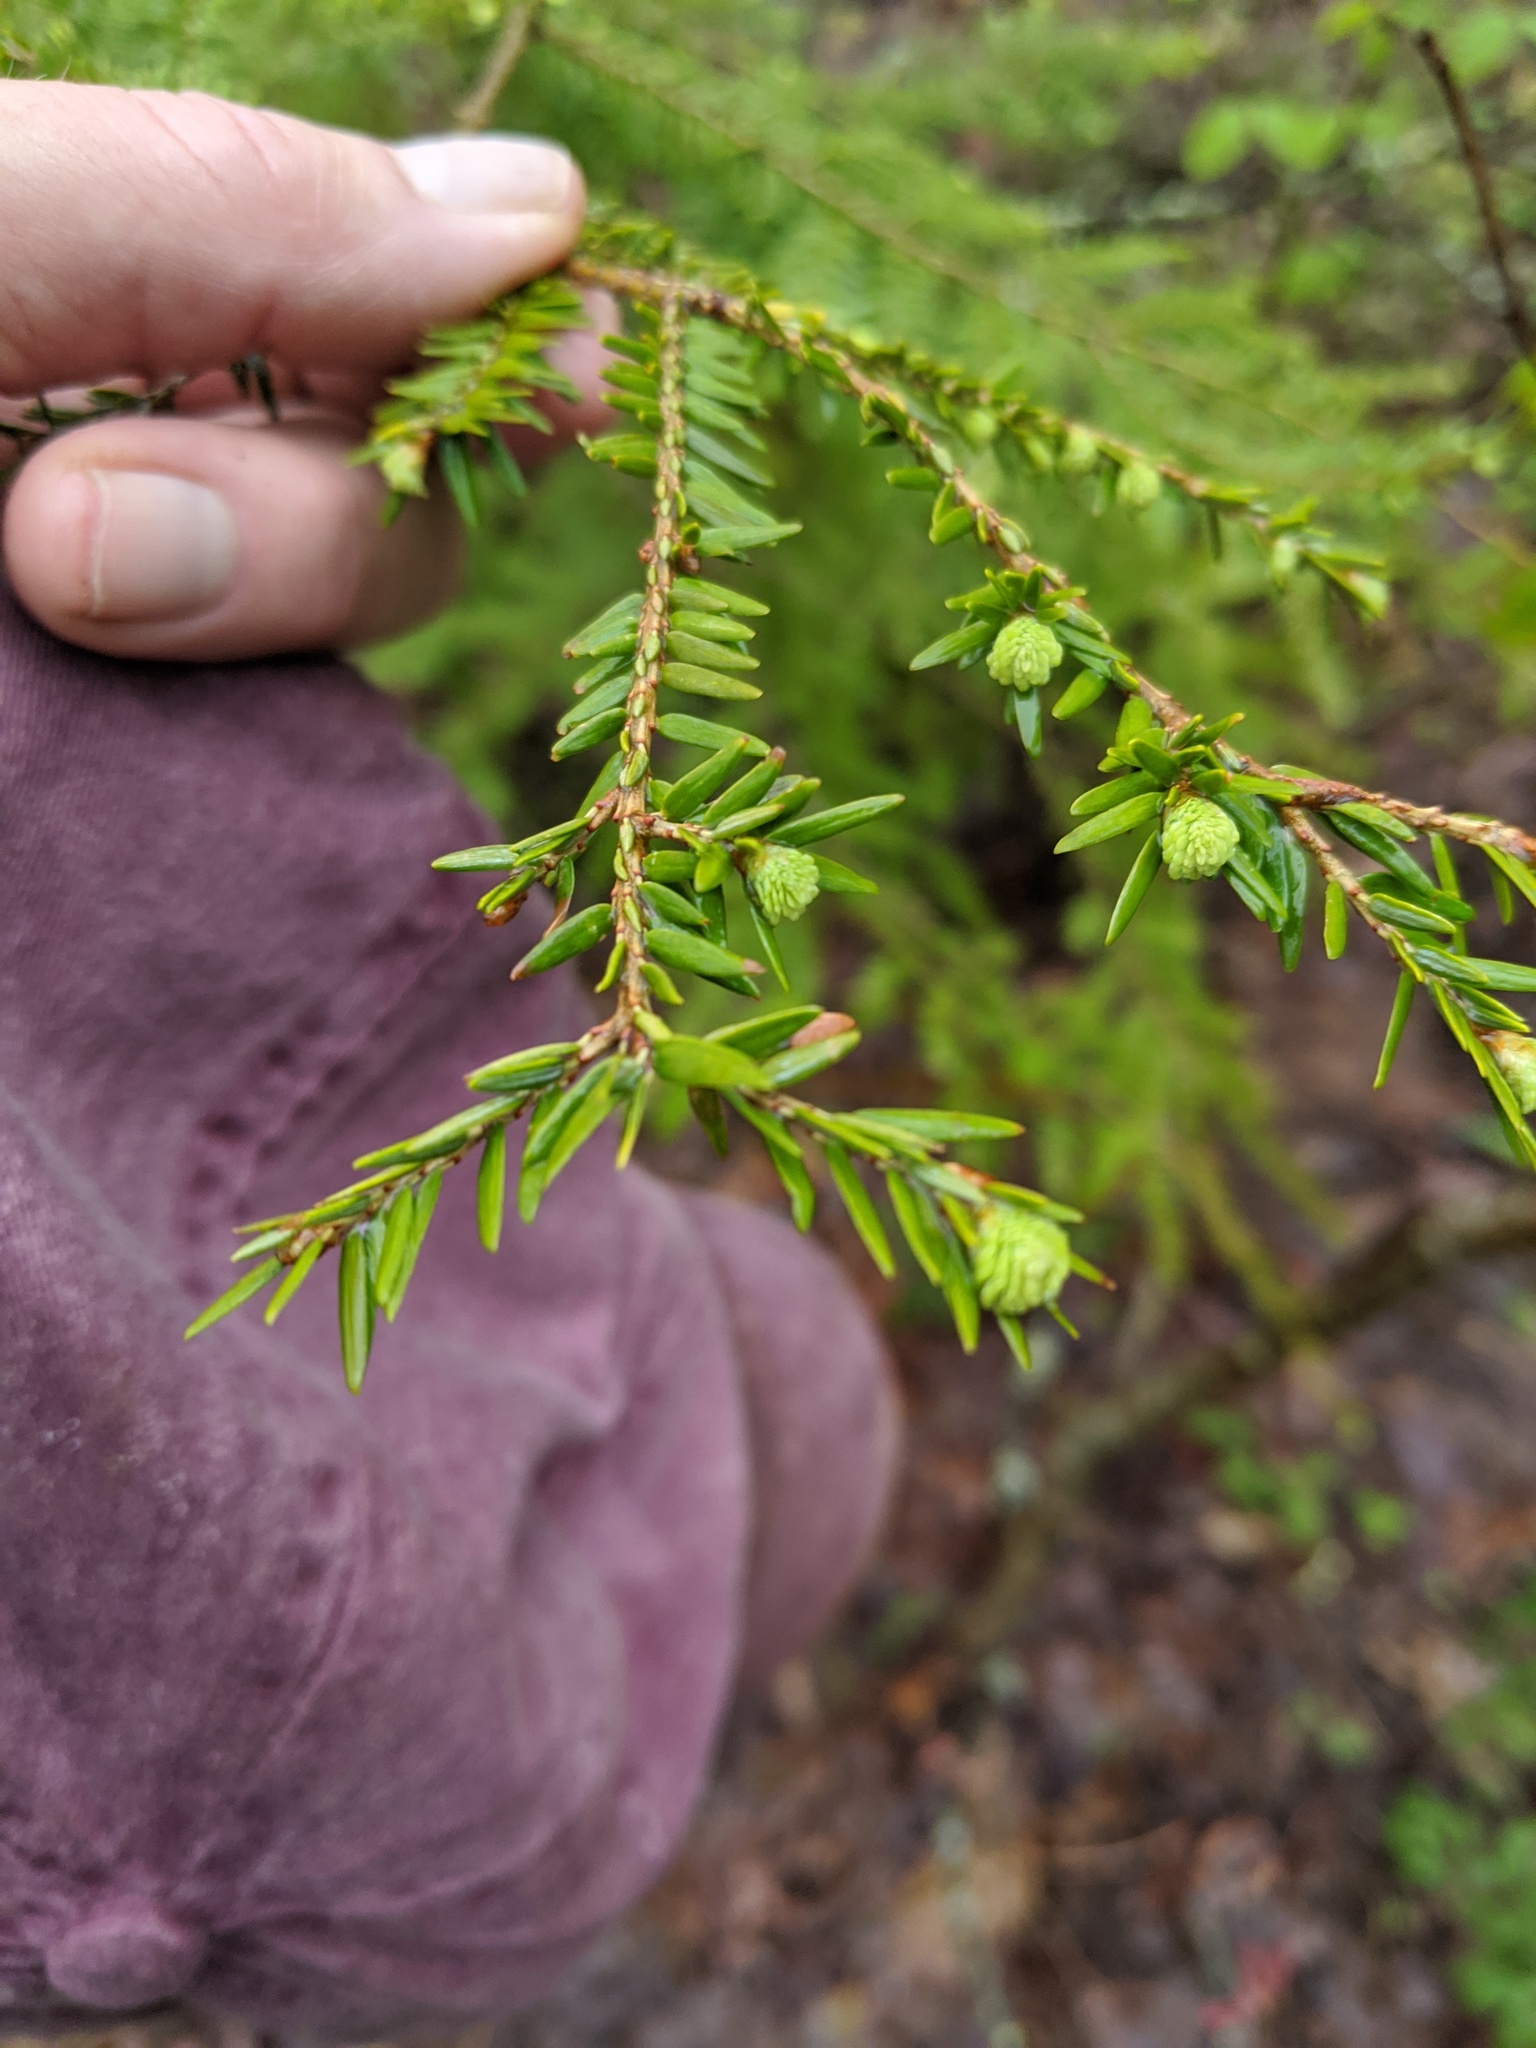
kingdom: Plantae
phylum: Tracheophyta
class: Pinopsida
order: Pinales
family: Pinaceae
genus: Tsuga
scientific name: Tsuga canadensis
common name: Eastern hemlock
